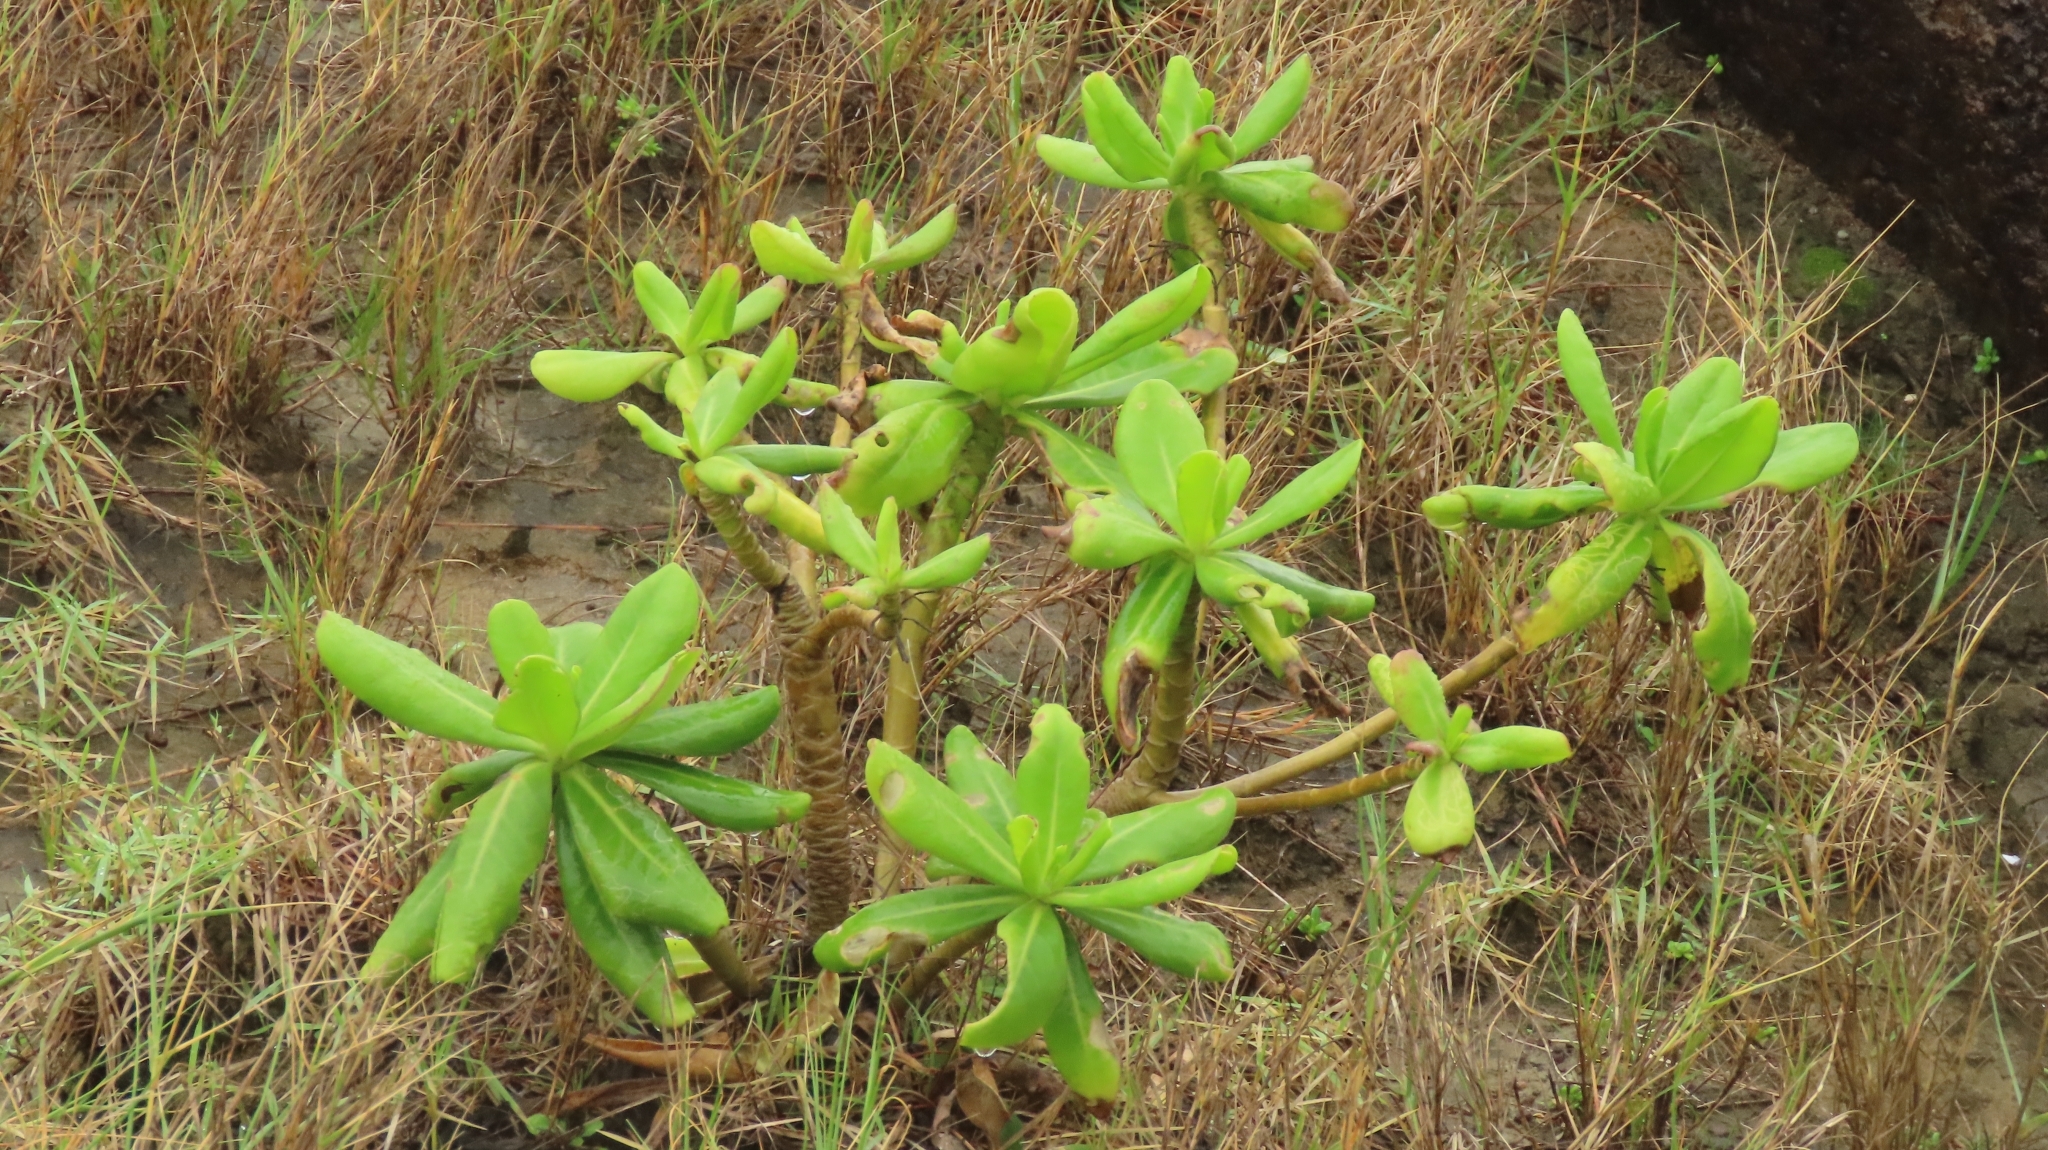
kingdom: Plantae
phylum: Tracheophyta
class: Magnoliopsida
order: Asterales
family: Goodeniaceae
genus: Scaevola
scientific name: Scaevola taccada
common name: Sea lettucetree
